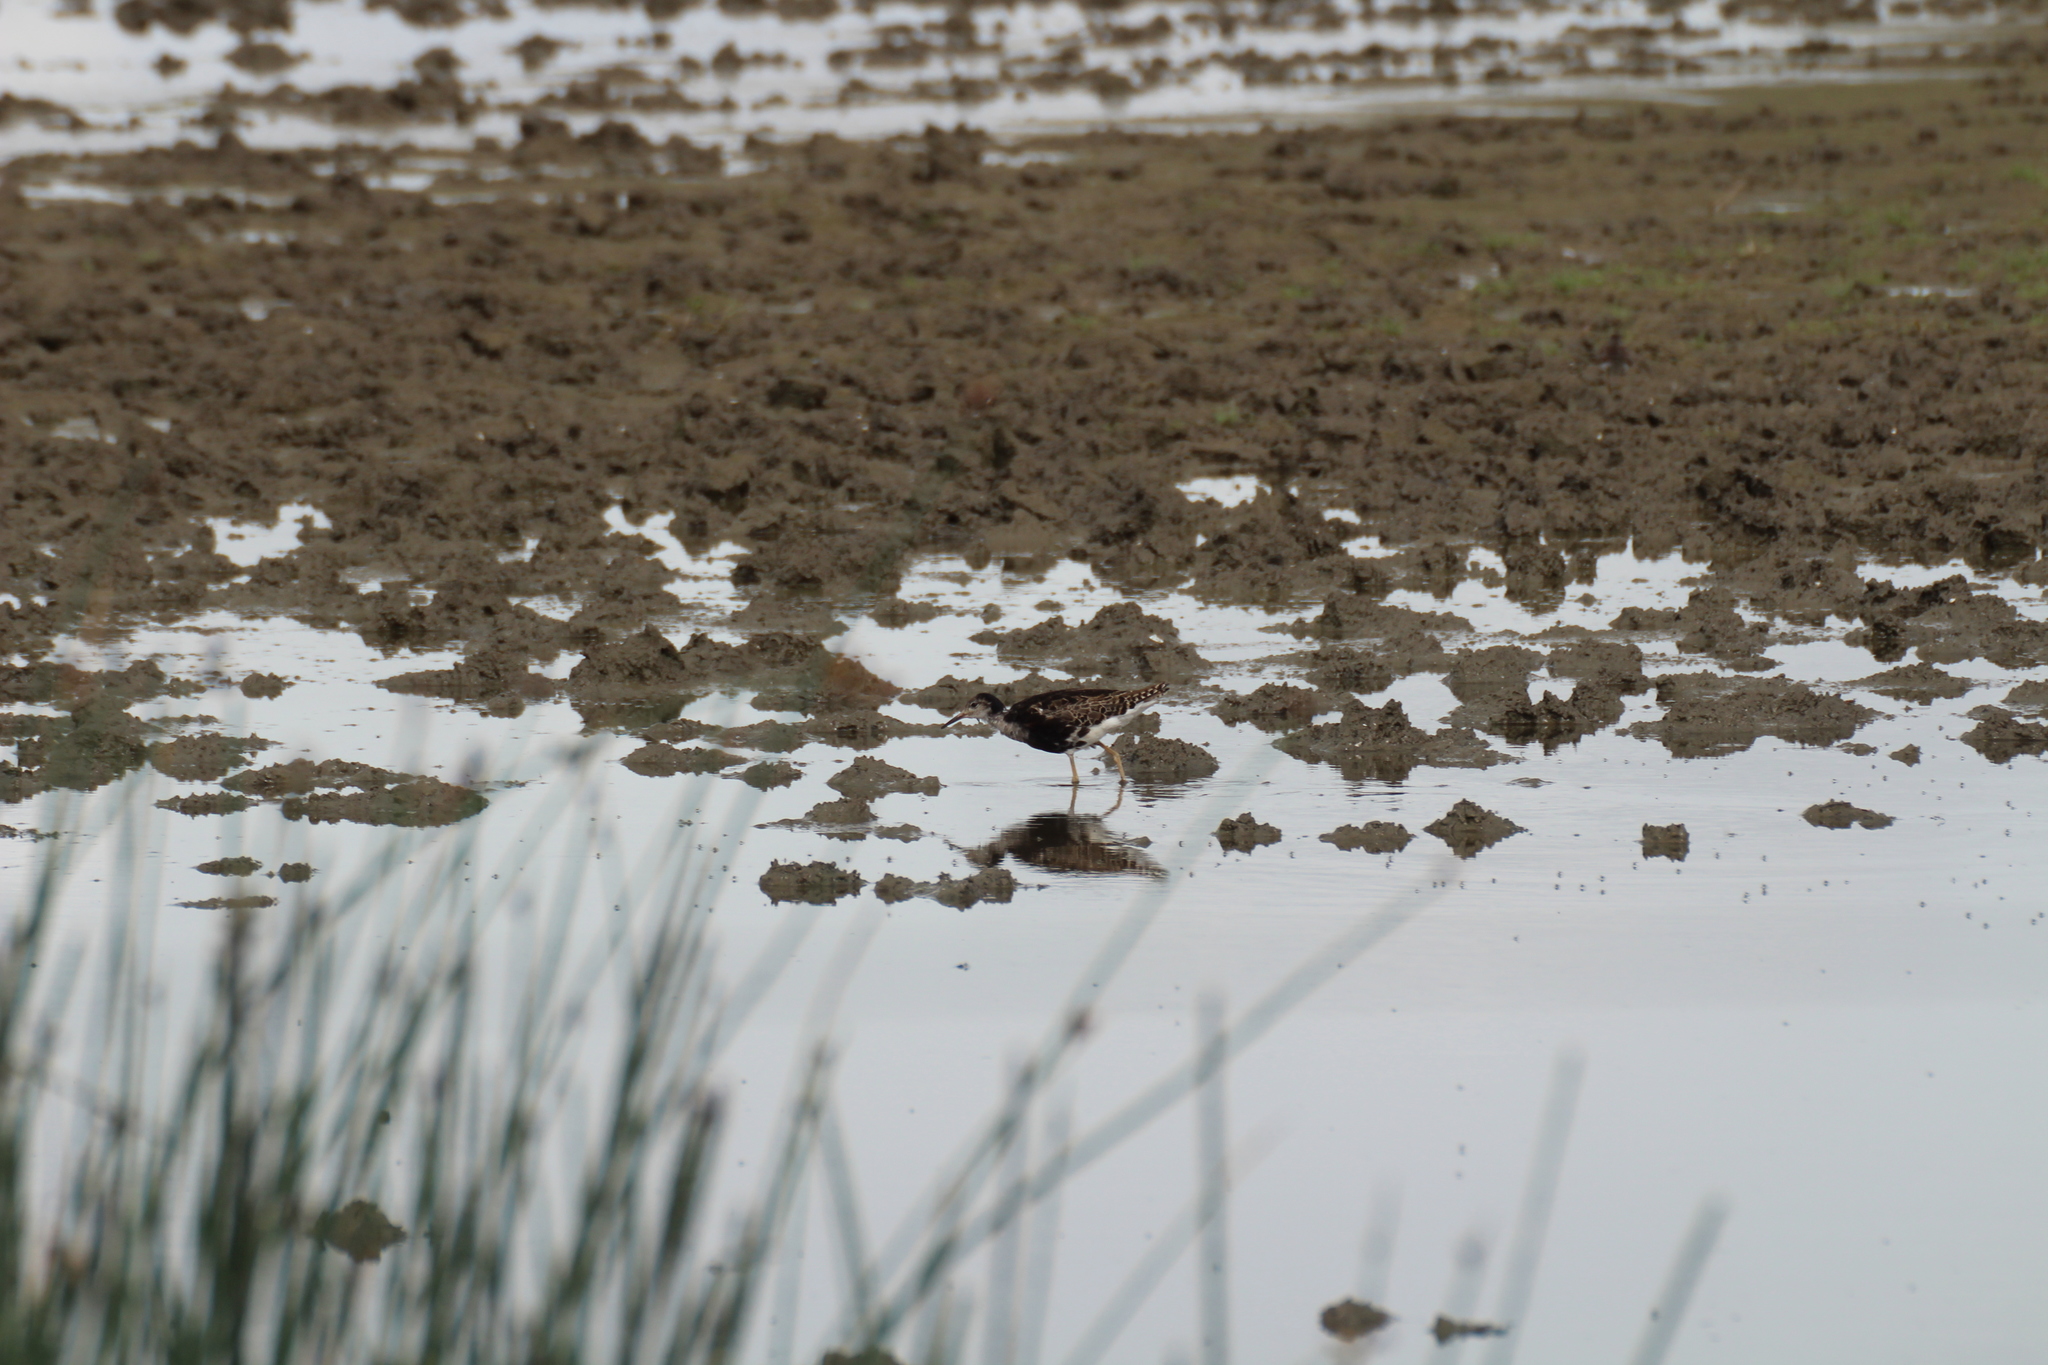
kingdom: Animalia
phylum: Chordata
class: Aves
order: Charadriiformes
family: Scolopacidae
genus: Calidris
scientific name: Calidris pugnax
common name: Ruff
